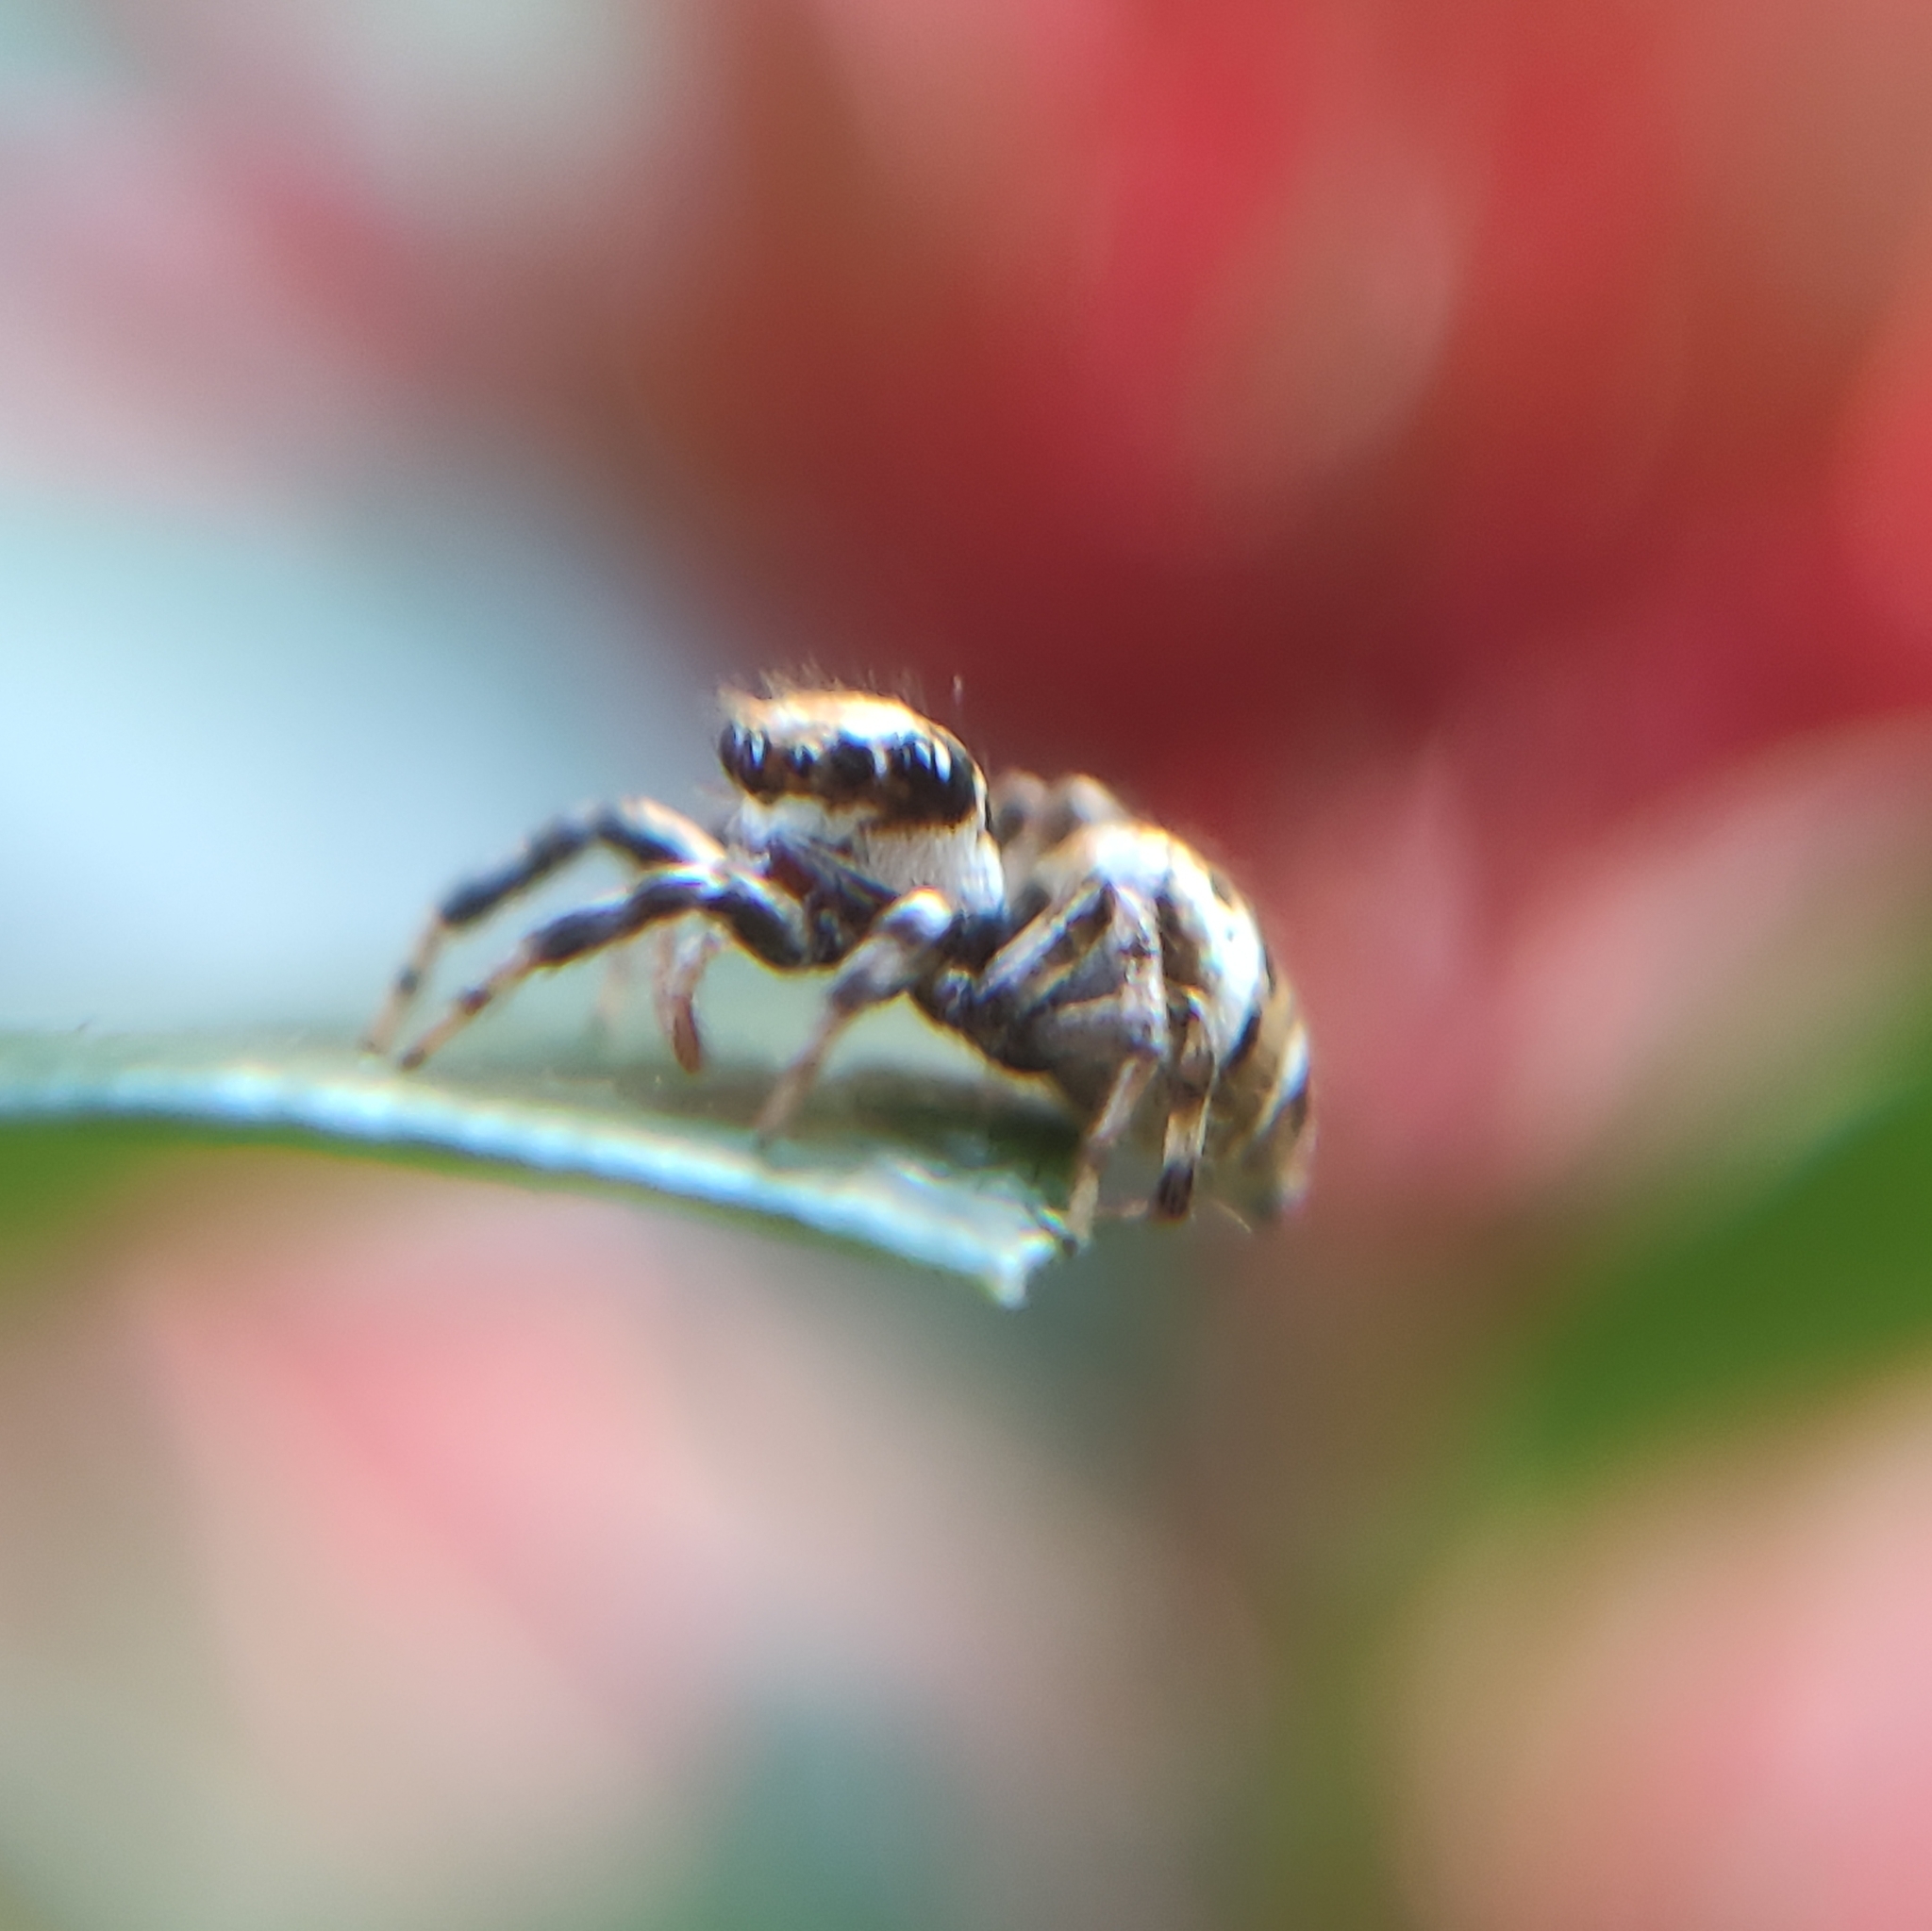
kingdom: Animalia
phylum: Arthropoda
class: Arachnida
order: Araneae
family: Salticidae
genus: Philira
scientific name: Philira micans
